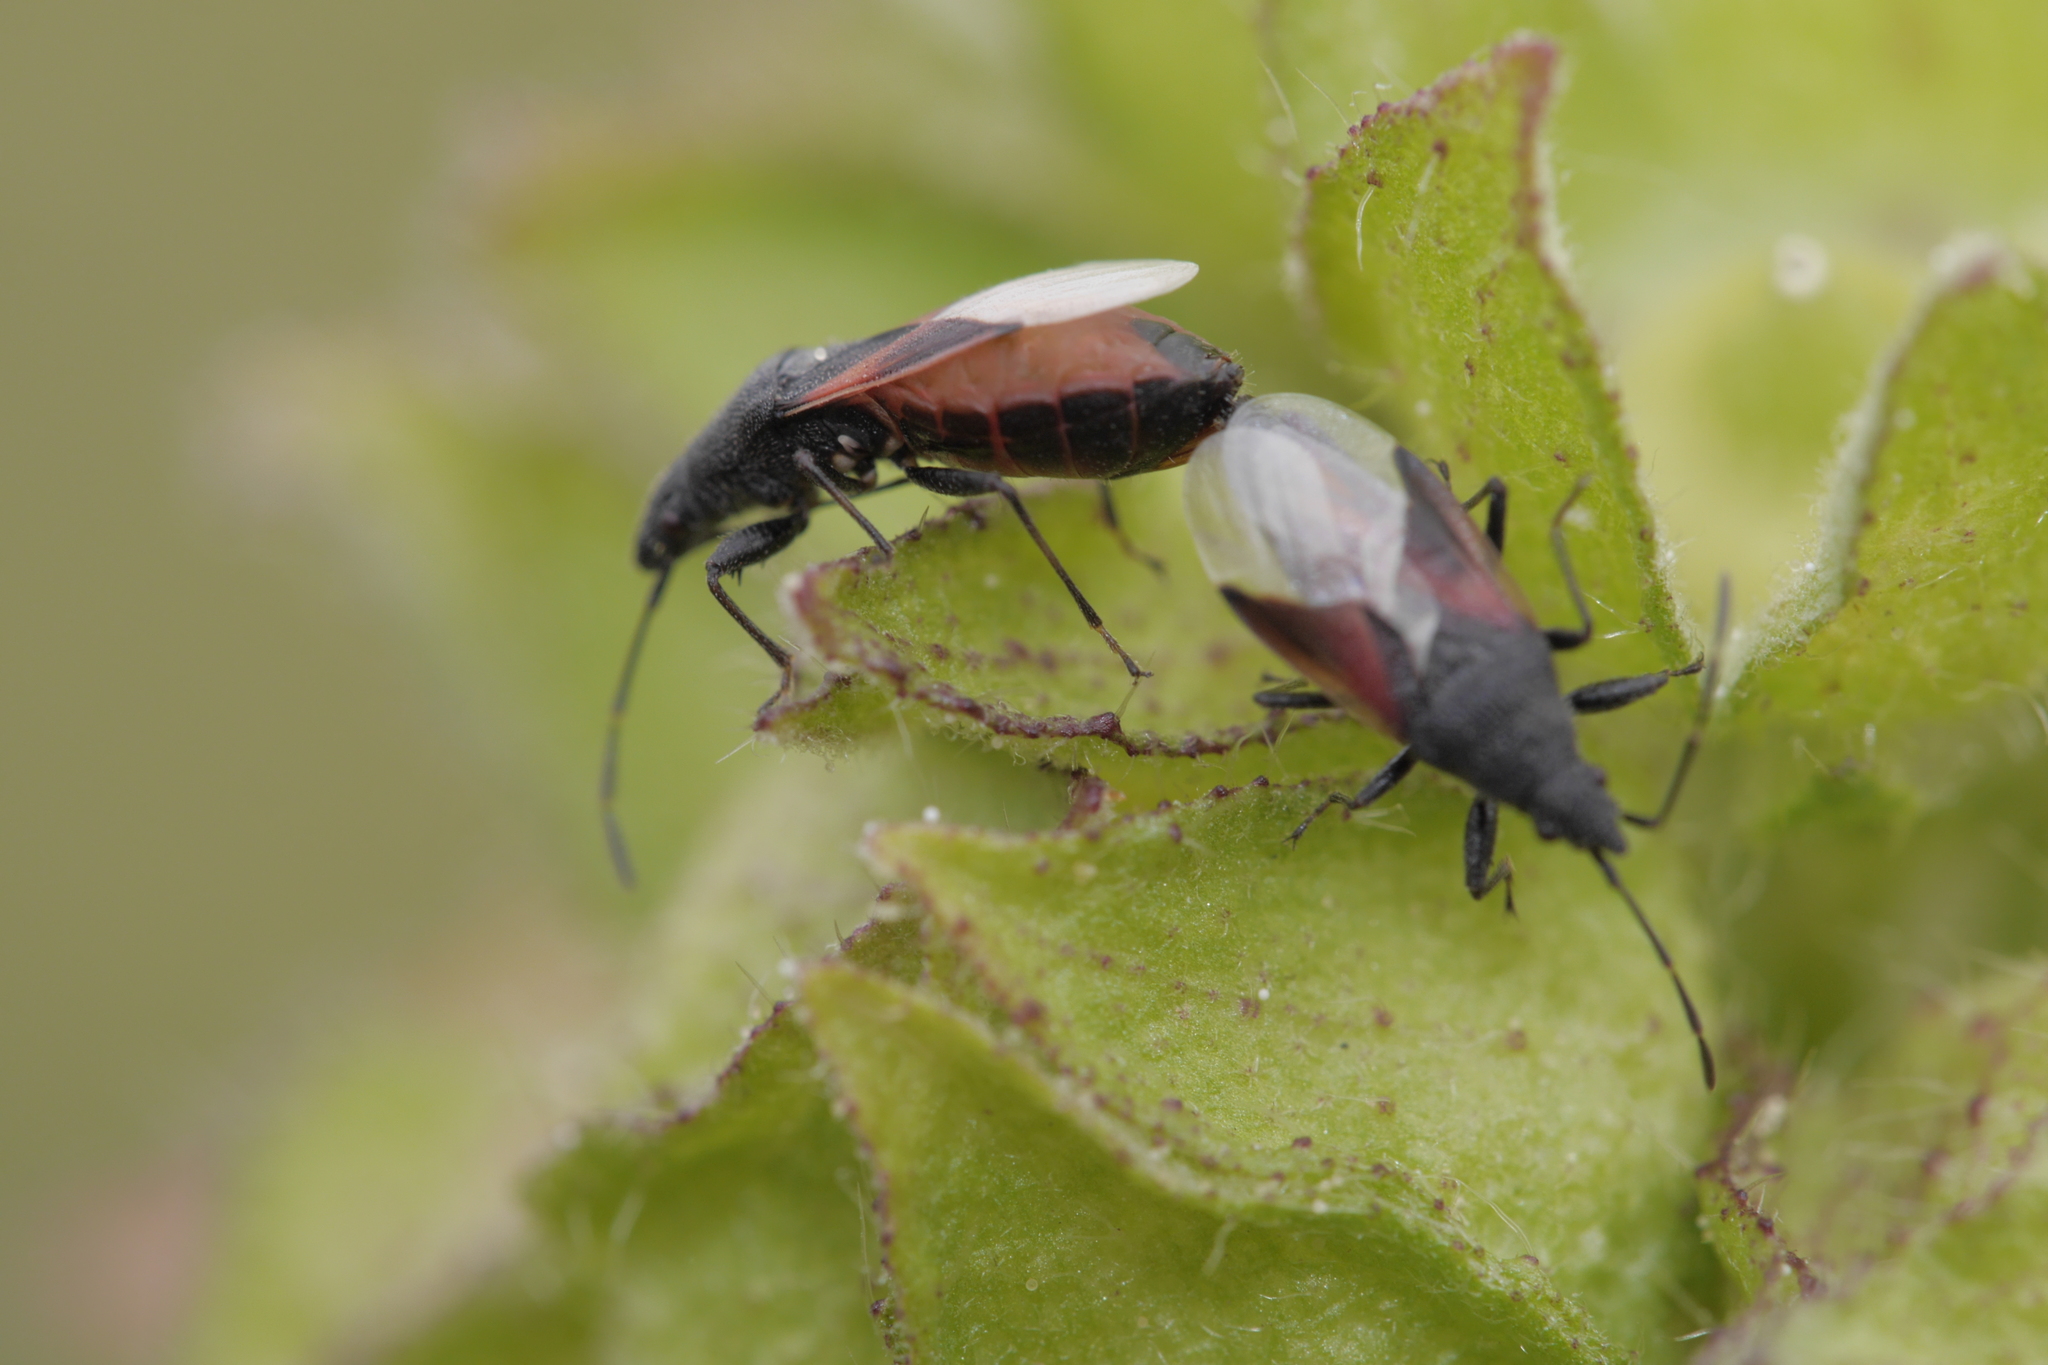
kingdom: Animalia
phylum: Arthropoda
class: Insecta
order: Hemiptera
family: Oxycarenidae
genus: Oxycarenus
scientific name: Oxycarenus lavaterae
